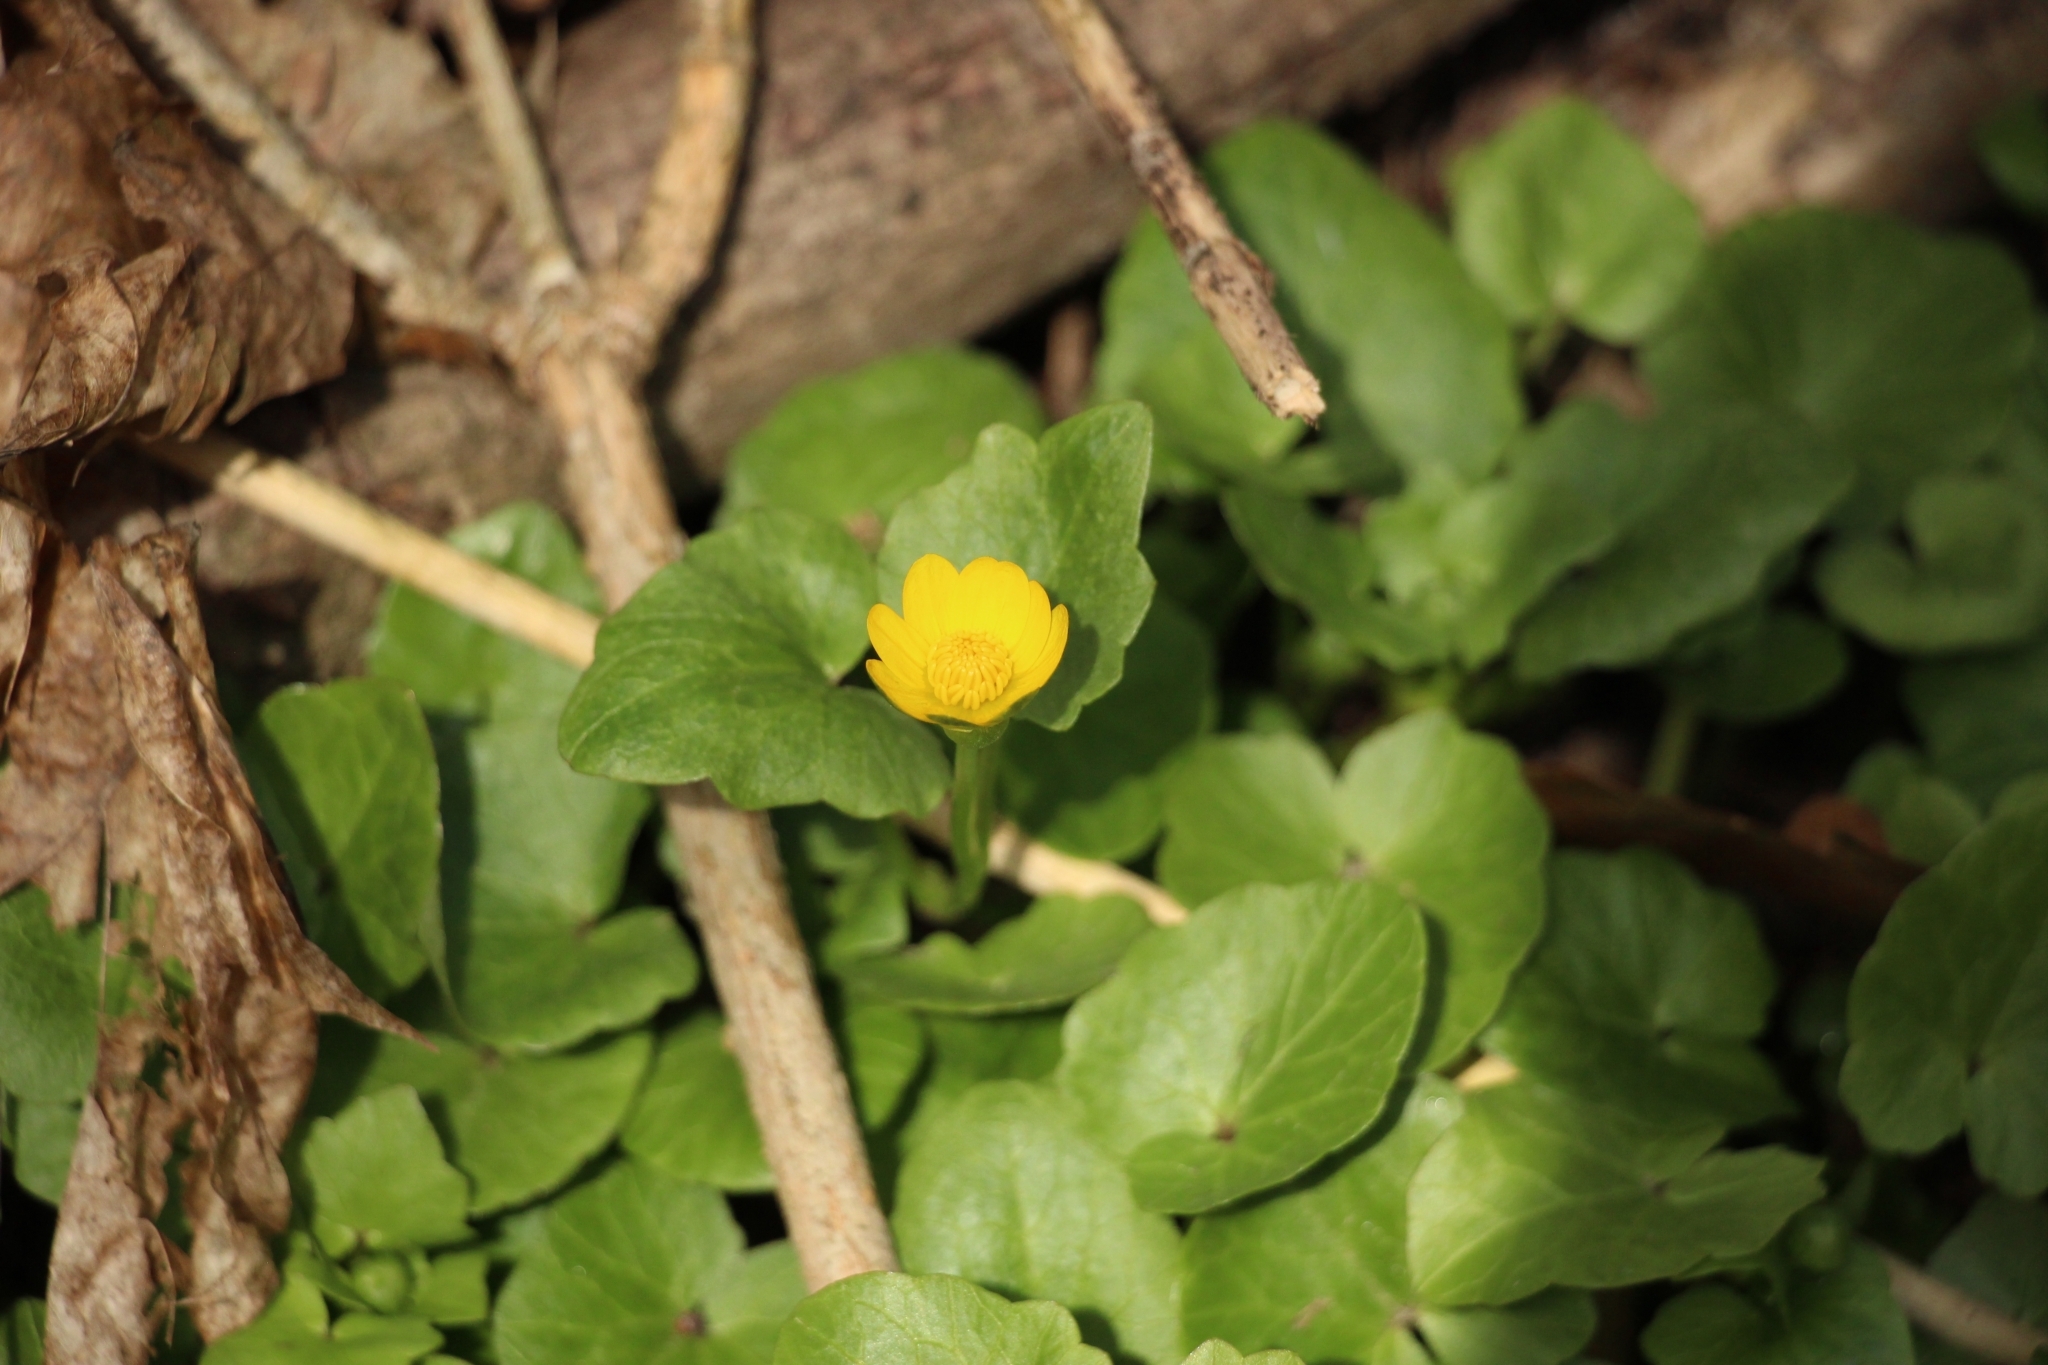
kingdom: Plantae
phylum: Tracheophyta
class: Magnoliopsida
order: Ranunculales
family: Ranunculaceae
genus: Ficaria
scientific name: Ficaria verna
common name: Lesser celandine
